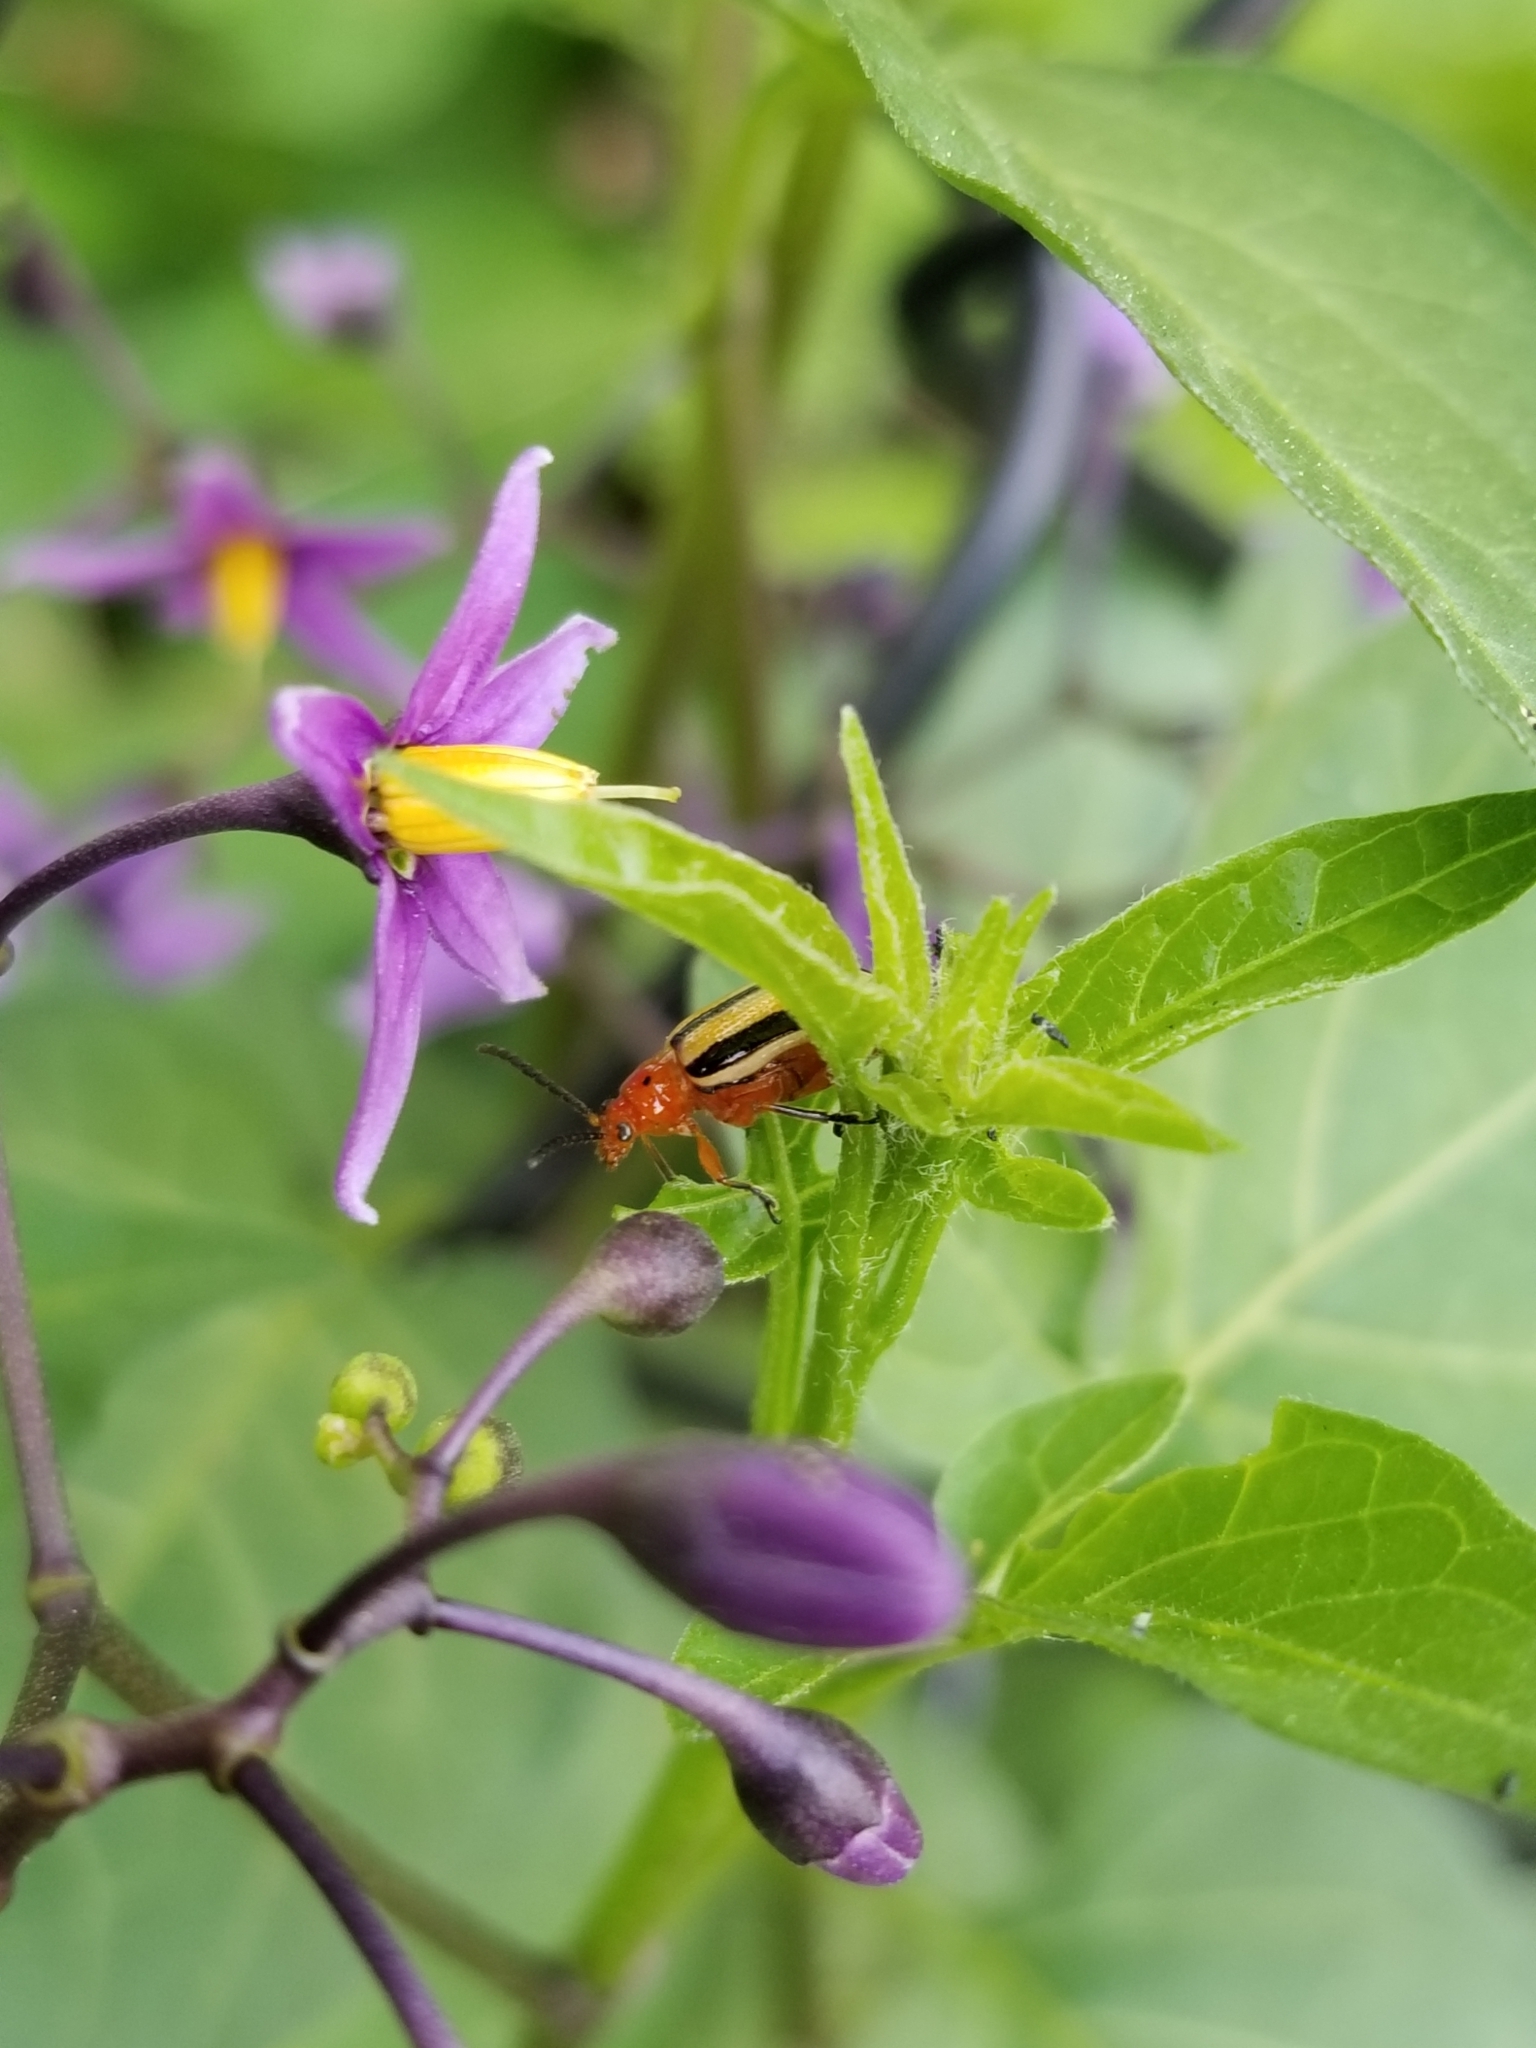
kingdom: Animalia
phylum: Arthropoda
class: Insecta
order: Coleoptera
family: Chrysomelidae
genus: Lema
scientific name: Lema daturaphila
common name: Leaf beetle
